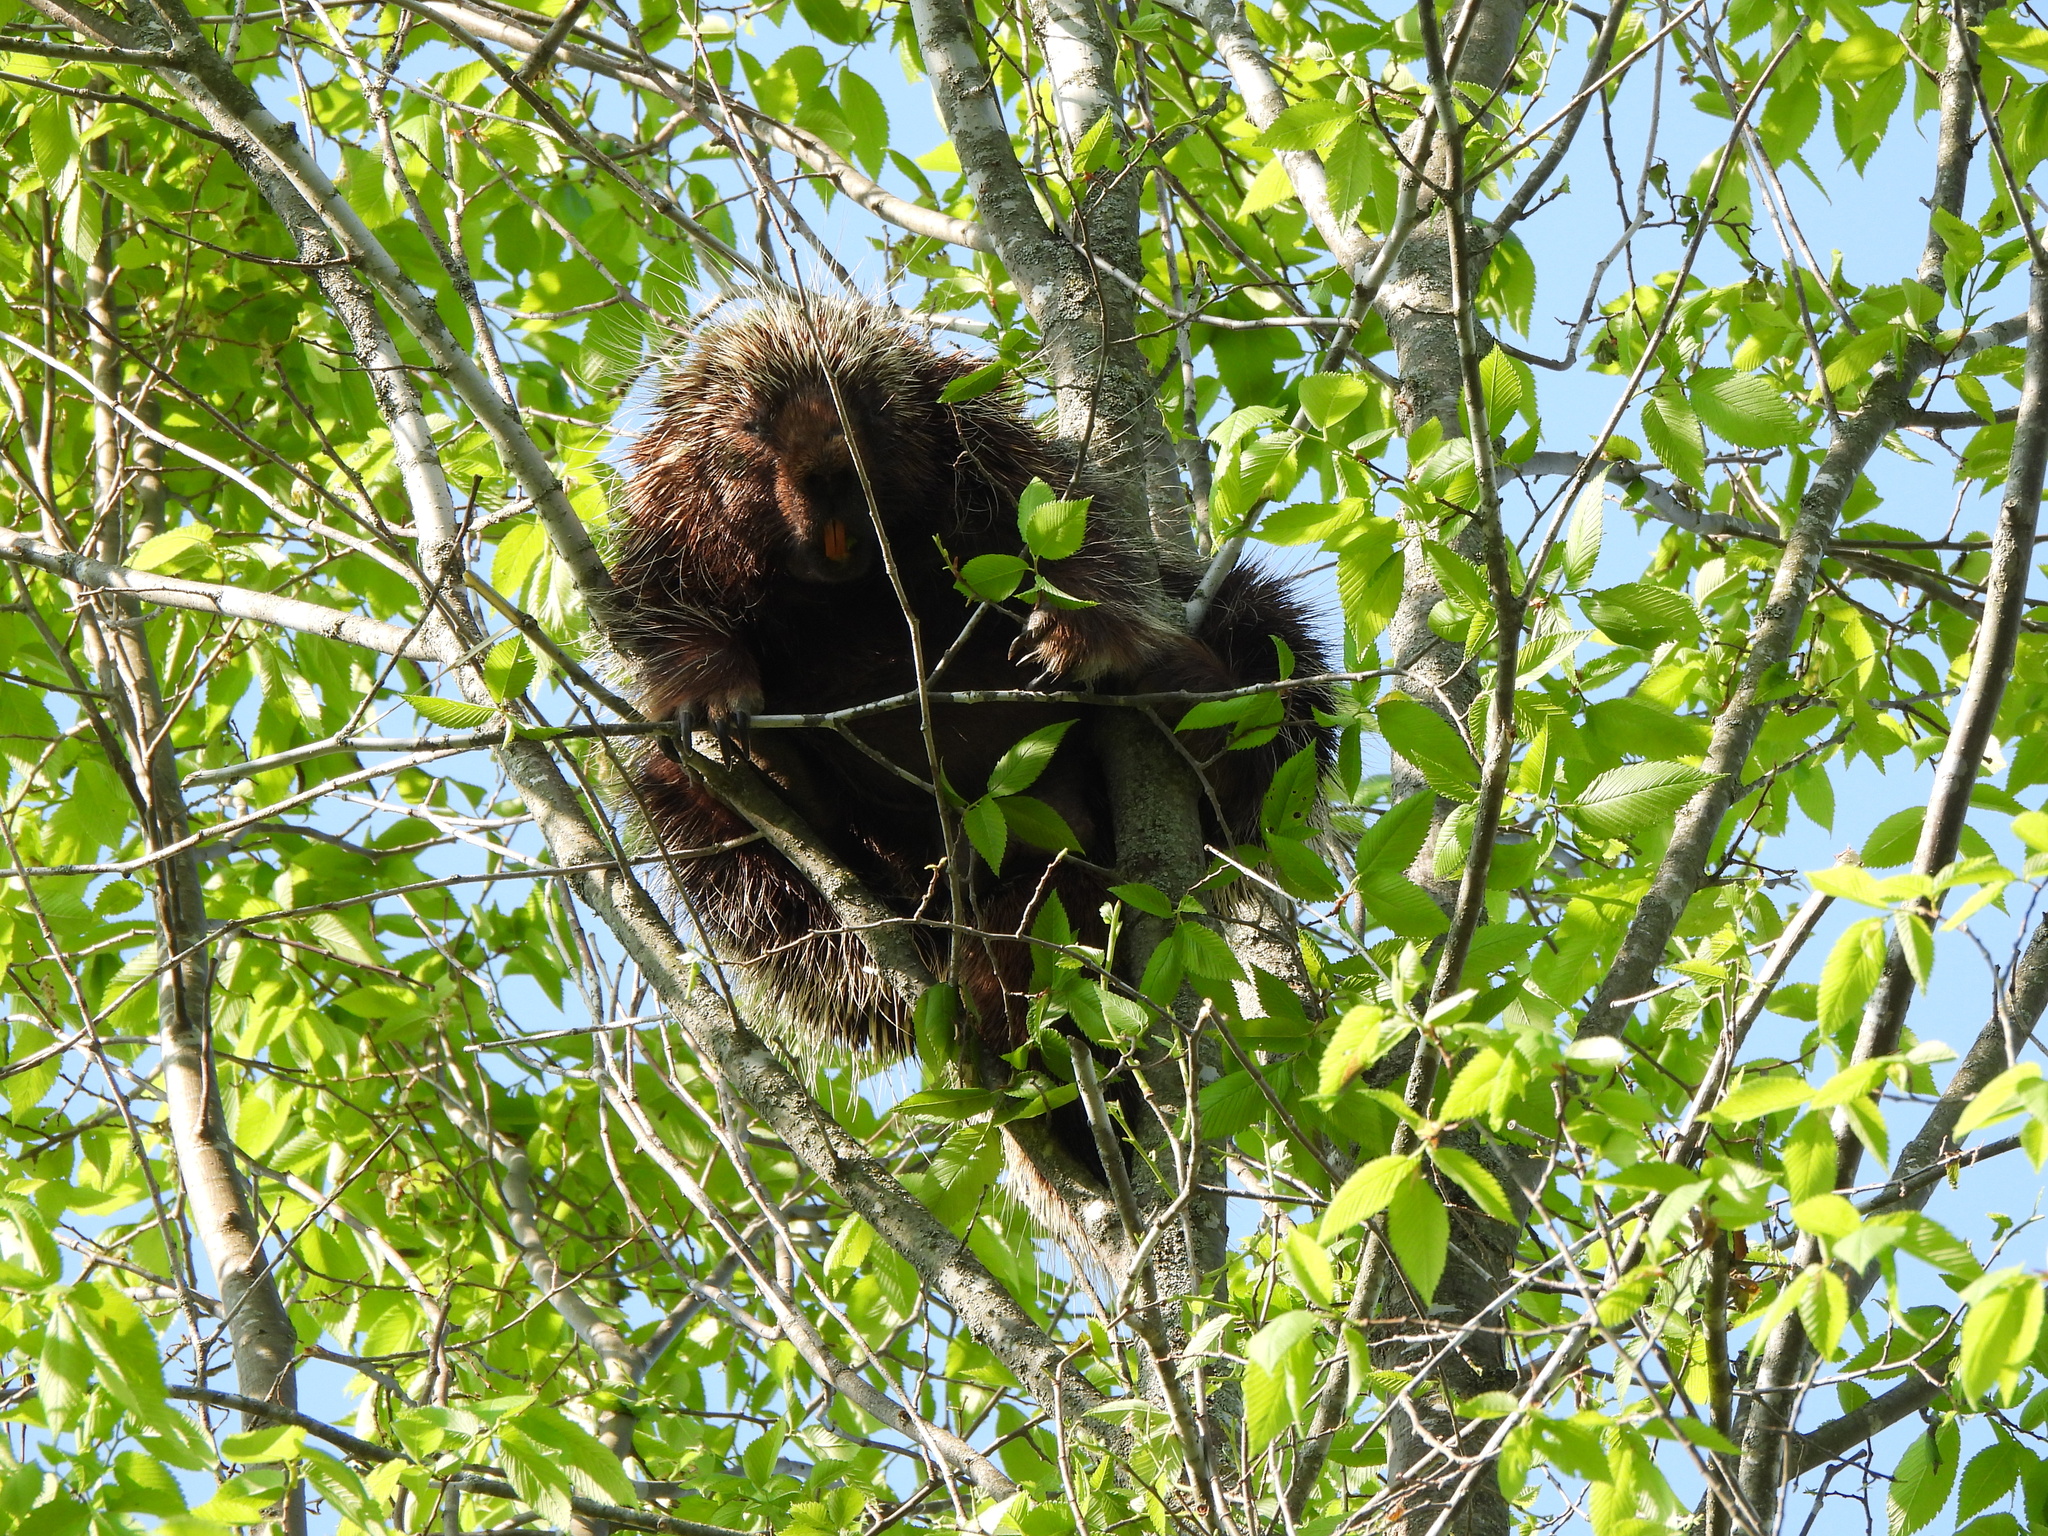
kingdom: Animalia
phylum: Chordata
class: Mammalia
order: Rodentia
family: Erethizontidae
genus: Erethizon
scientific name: Erethizon dorsatus
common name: North american porcupine
